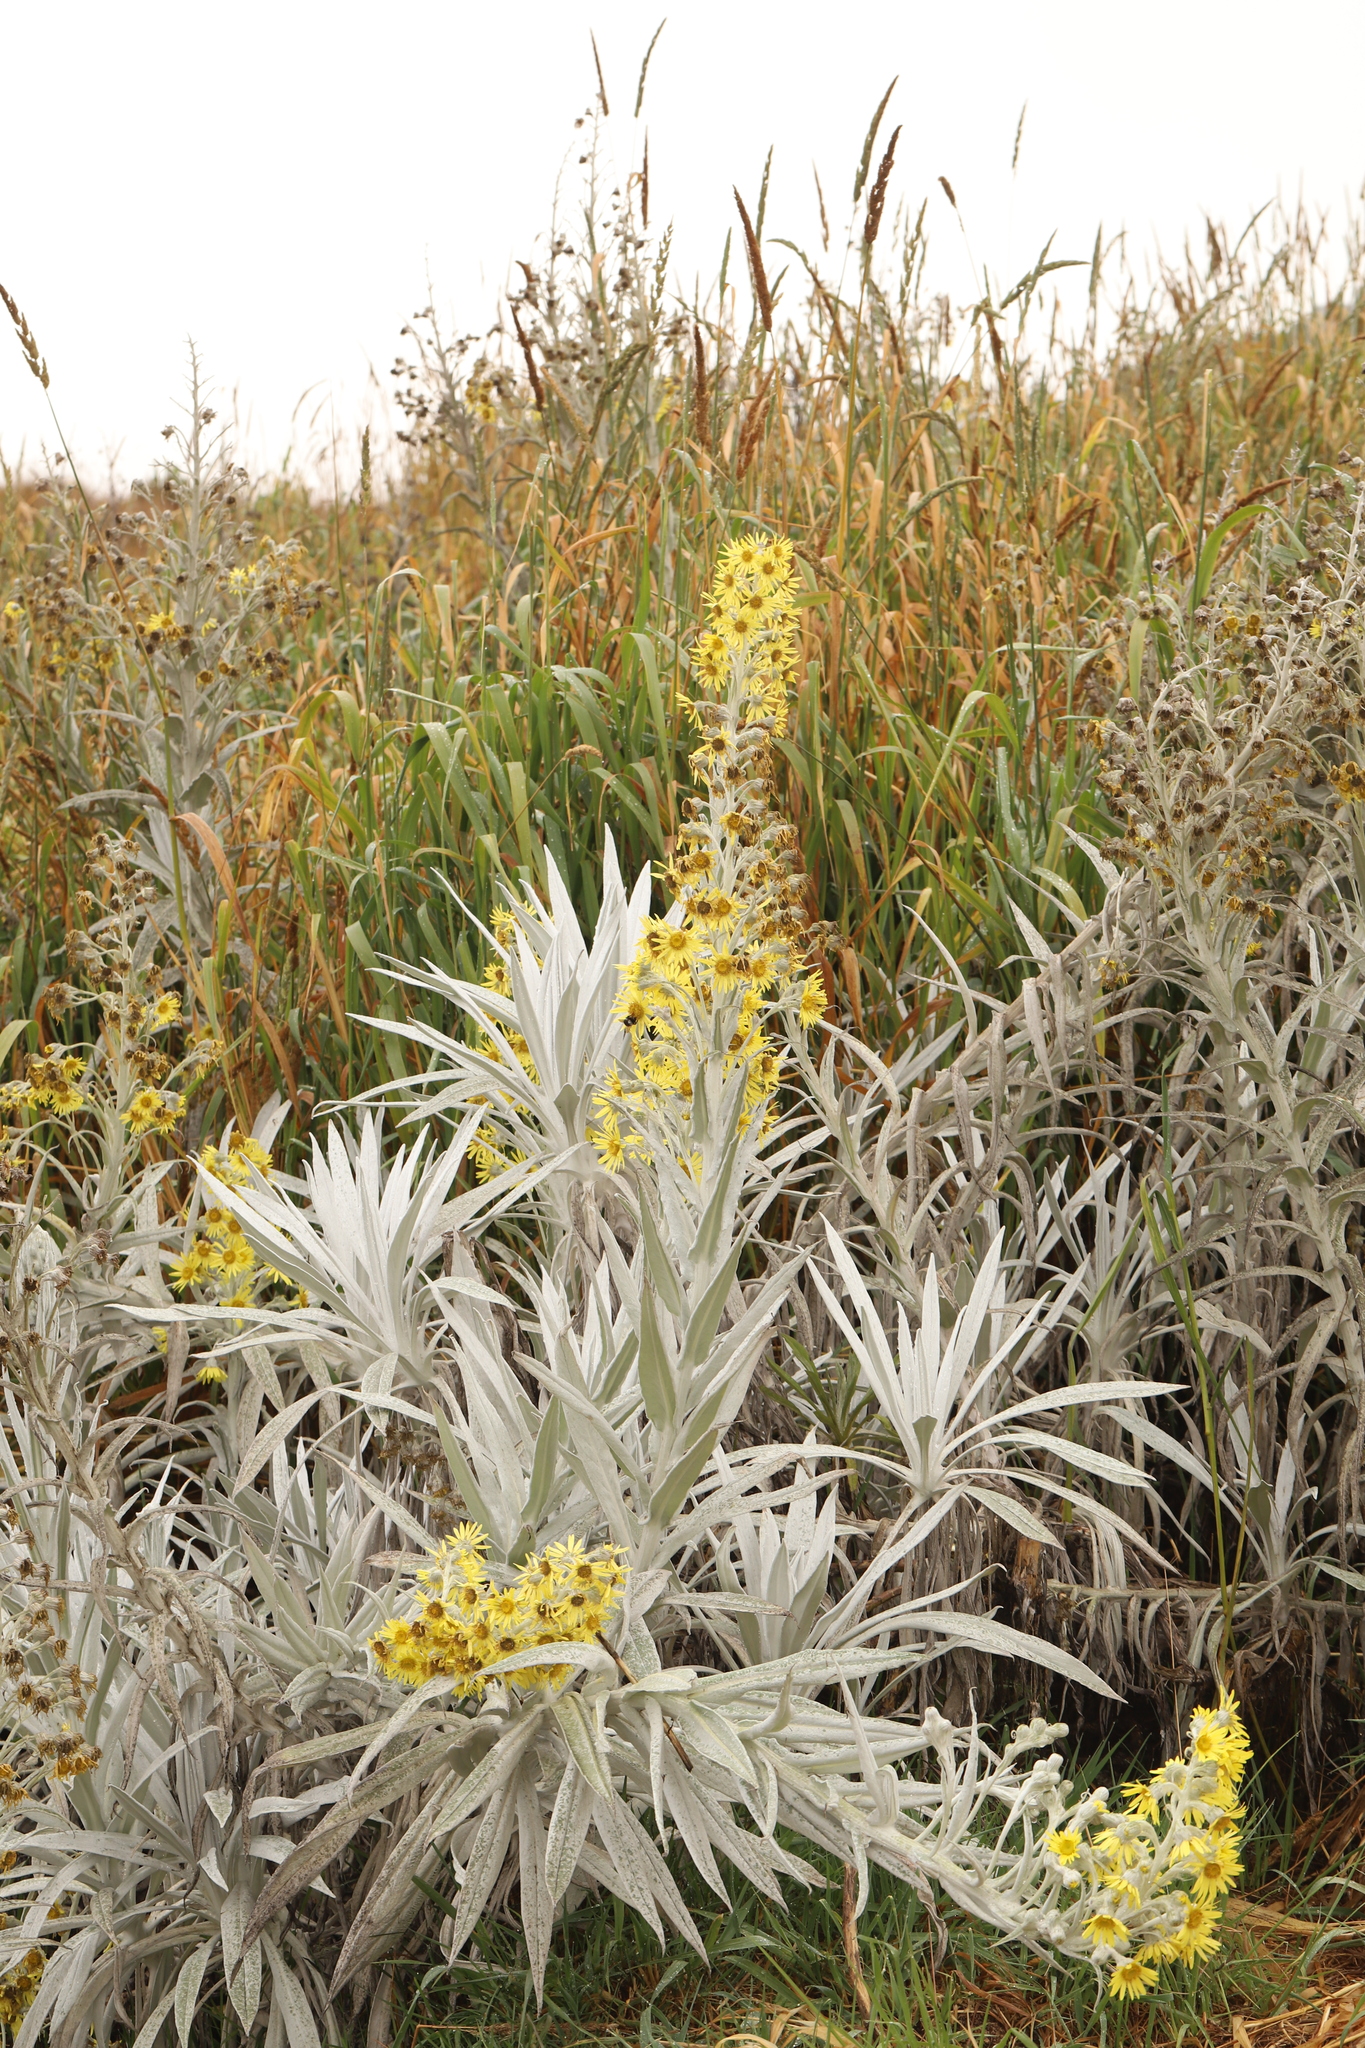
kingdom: Plantae
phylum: Tracheophyta
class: Magnoliopsida
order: Asterales
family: Asteraceae
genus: Senecio
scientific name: Senecio niveoaureus
